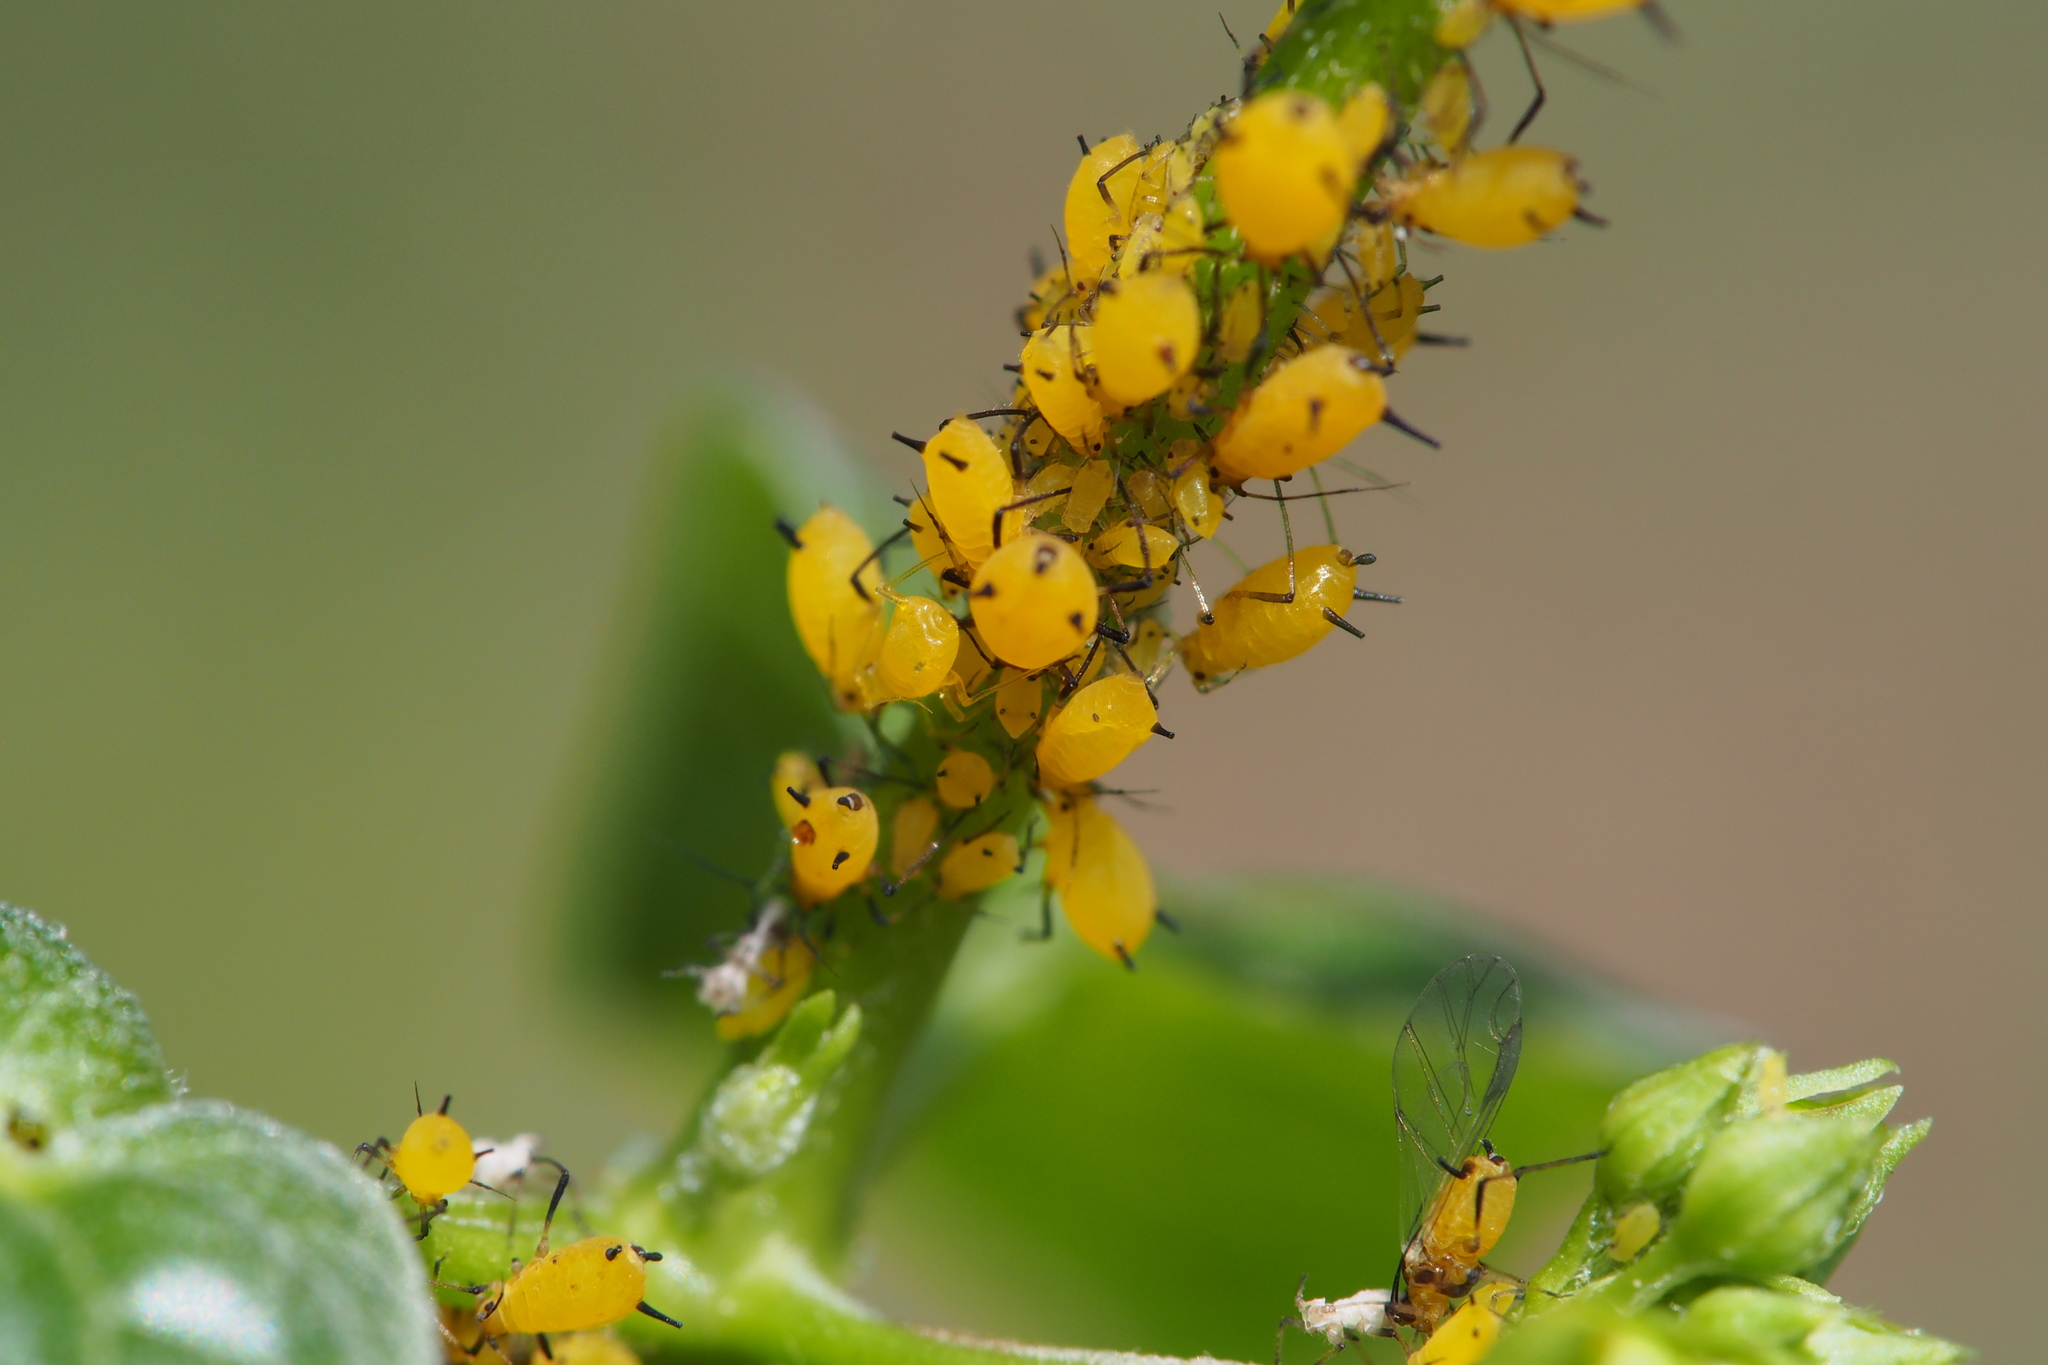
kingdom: Animalia
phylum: Arthropoda
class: Insecta
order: Hemiptera
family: Aphididae
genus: Aphis
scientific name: Aphis nerii
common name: Oleander aphid
